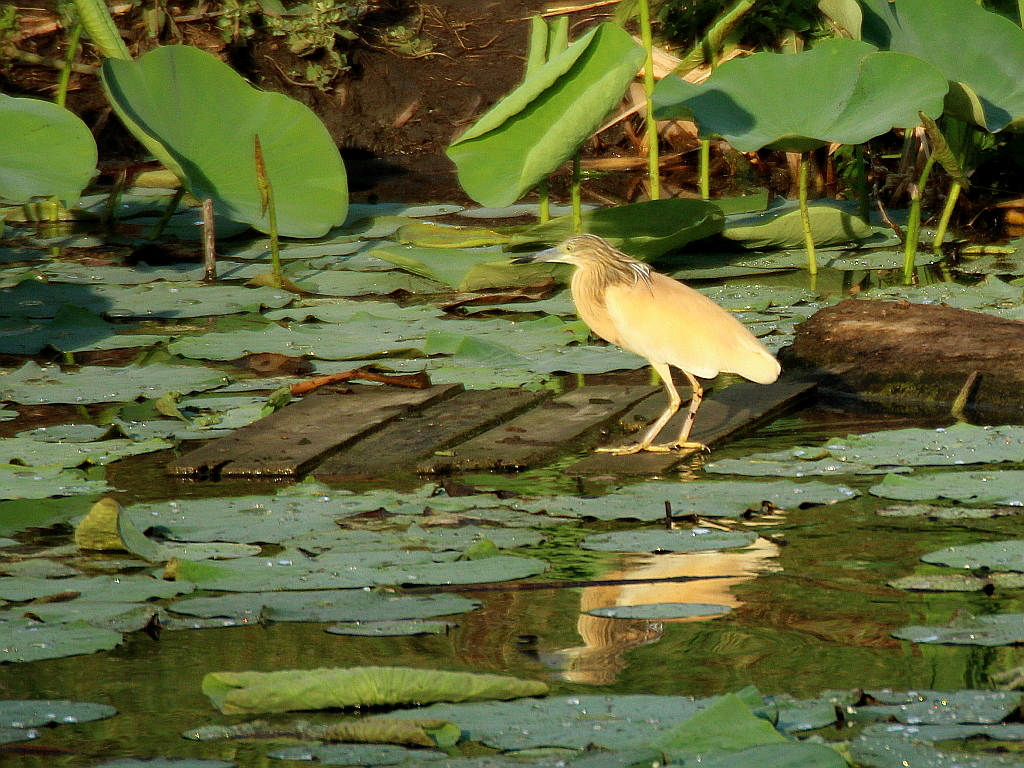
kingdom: Animalia
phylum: Chordata
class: Aves
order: Pelecaniformes
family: Ardeidae
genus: Ardeola
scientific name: Ardeola ralloides
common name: Squacco heron
